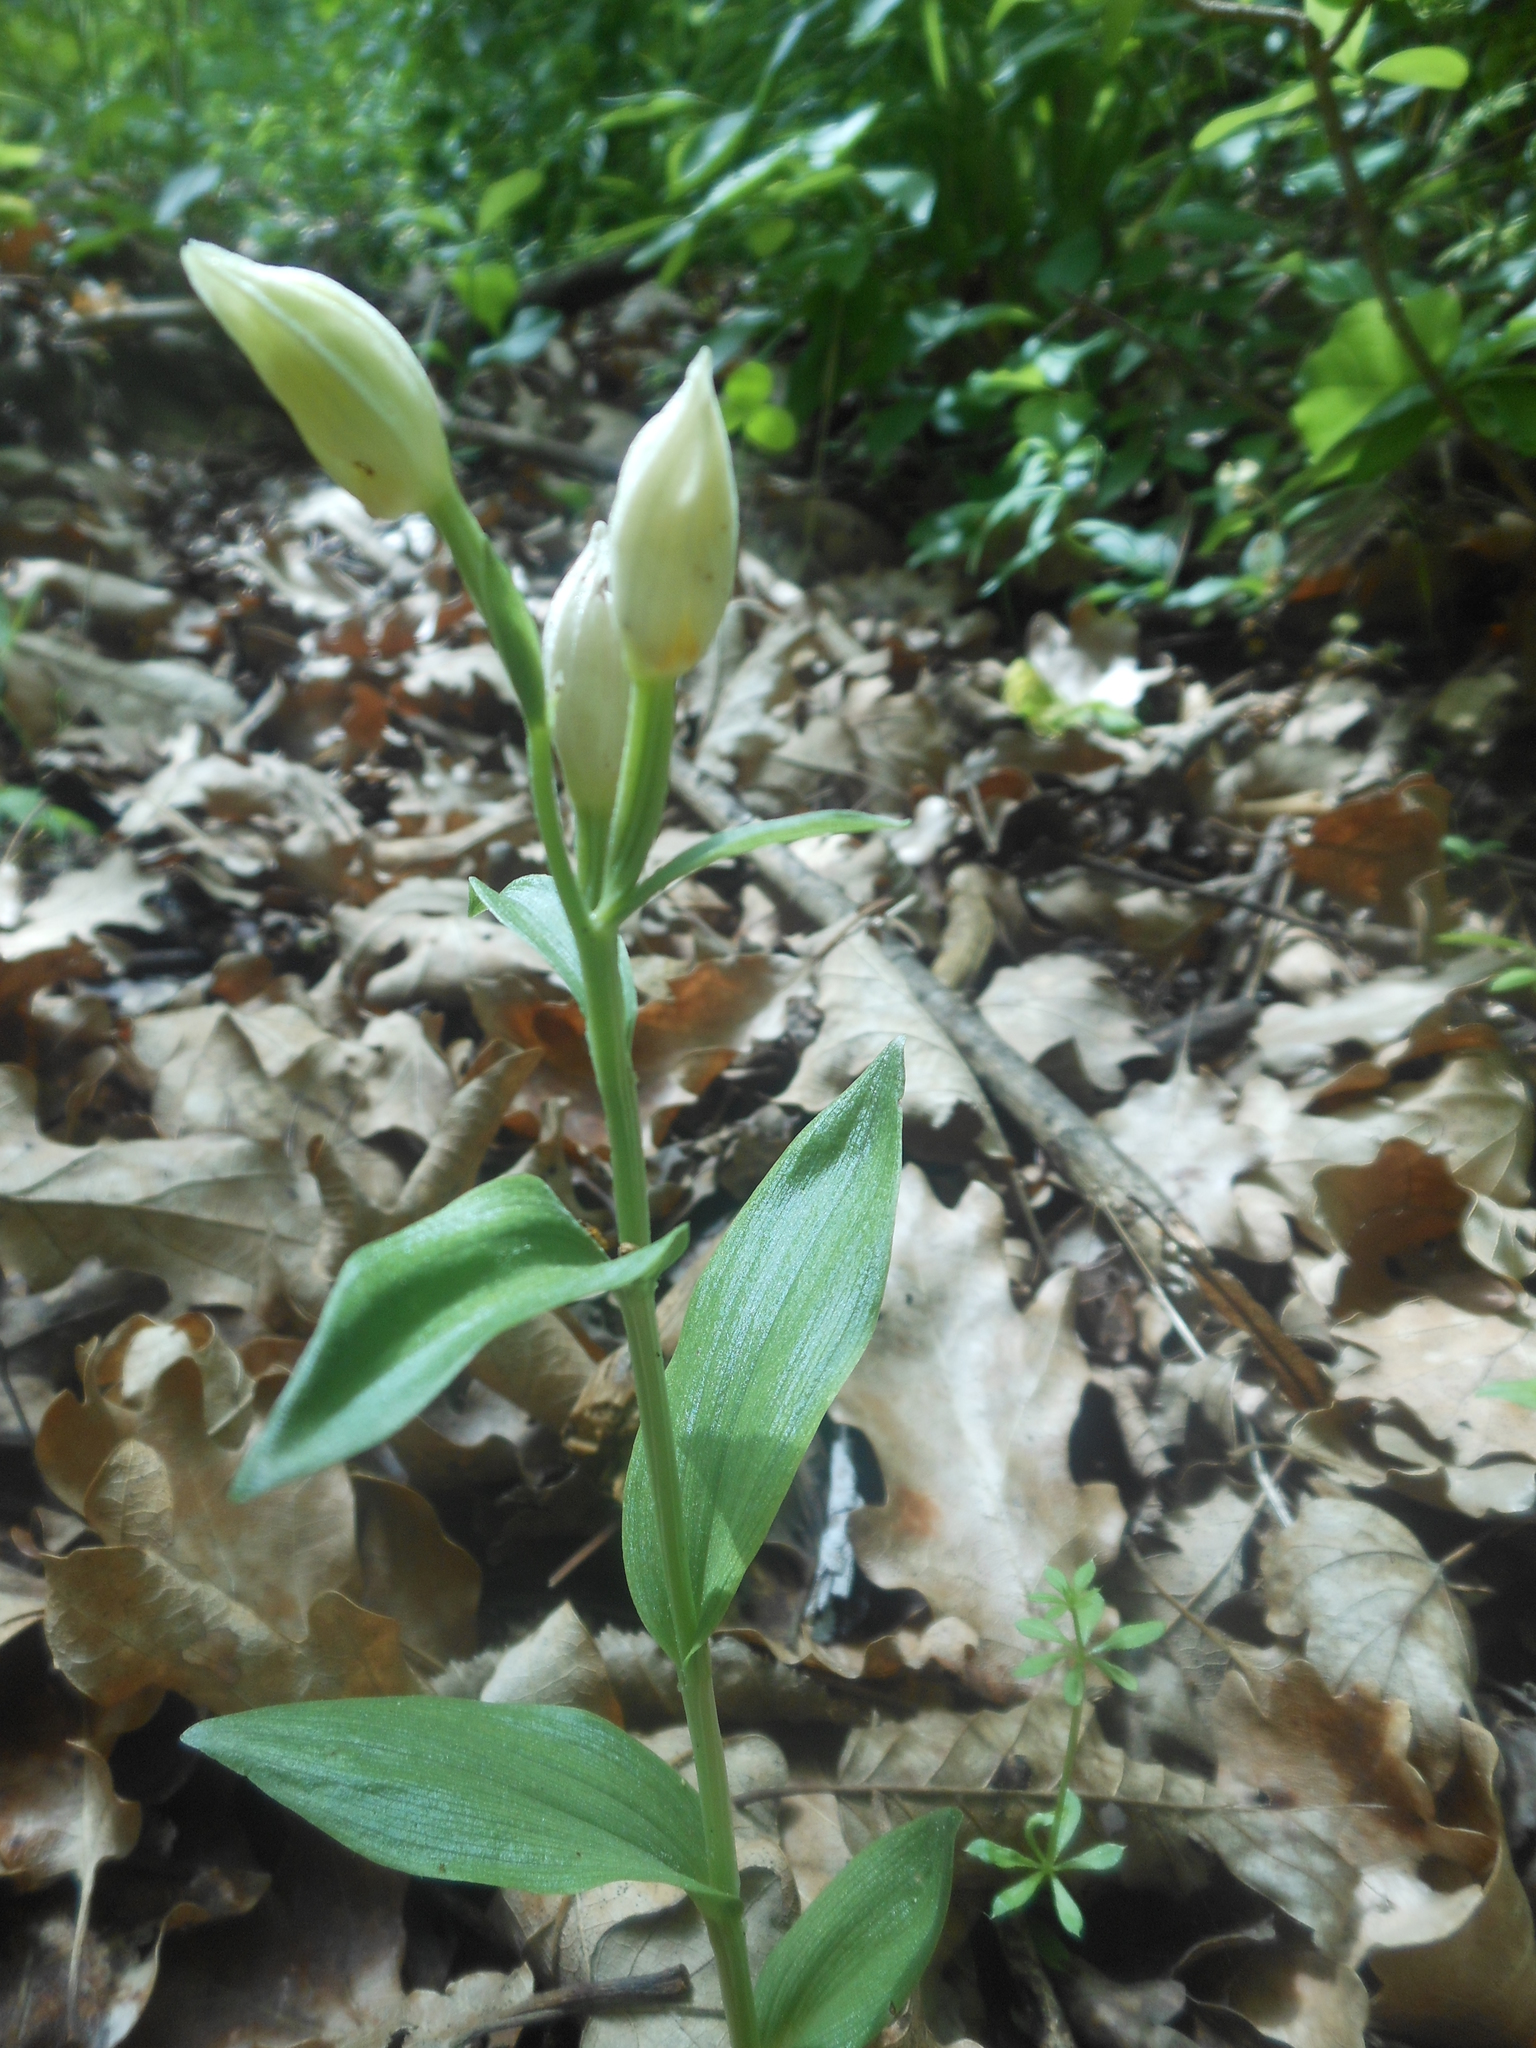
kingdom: Plantae
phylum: Tracheophyta
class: Liliopsida
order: Asparagales
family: Orchidaceae
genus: Cephalanthera
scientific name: Cephalanthera damasonium
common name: White helleborine
